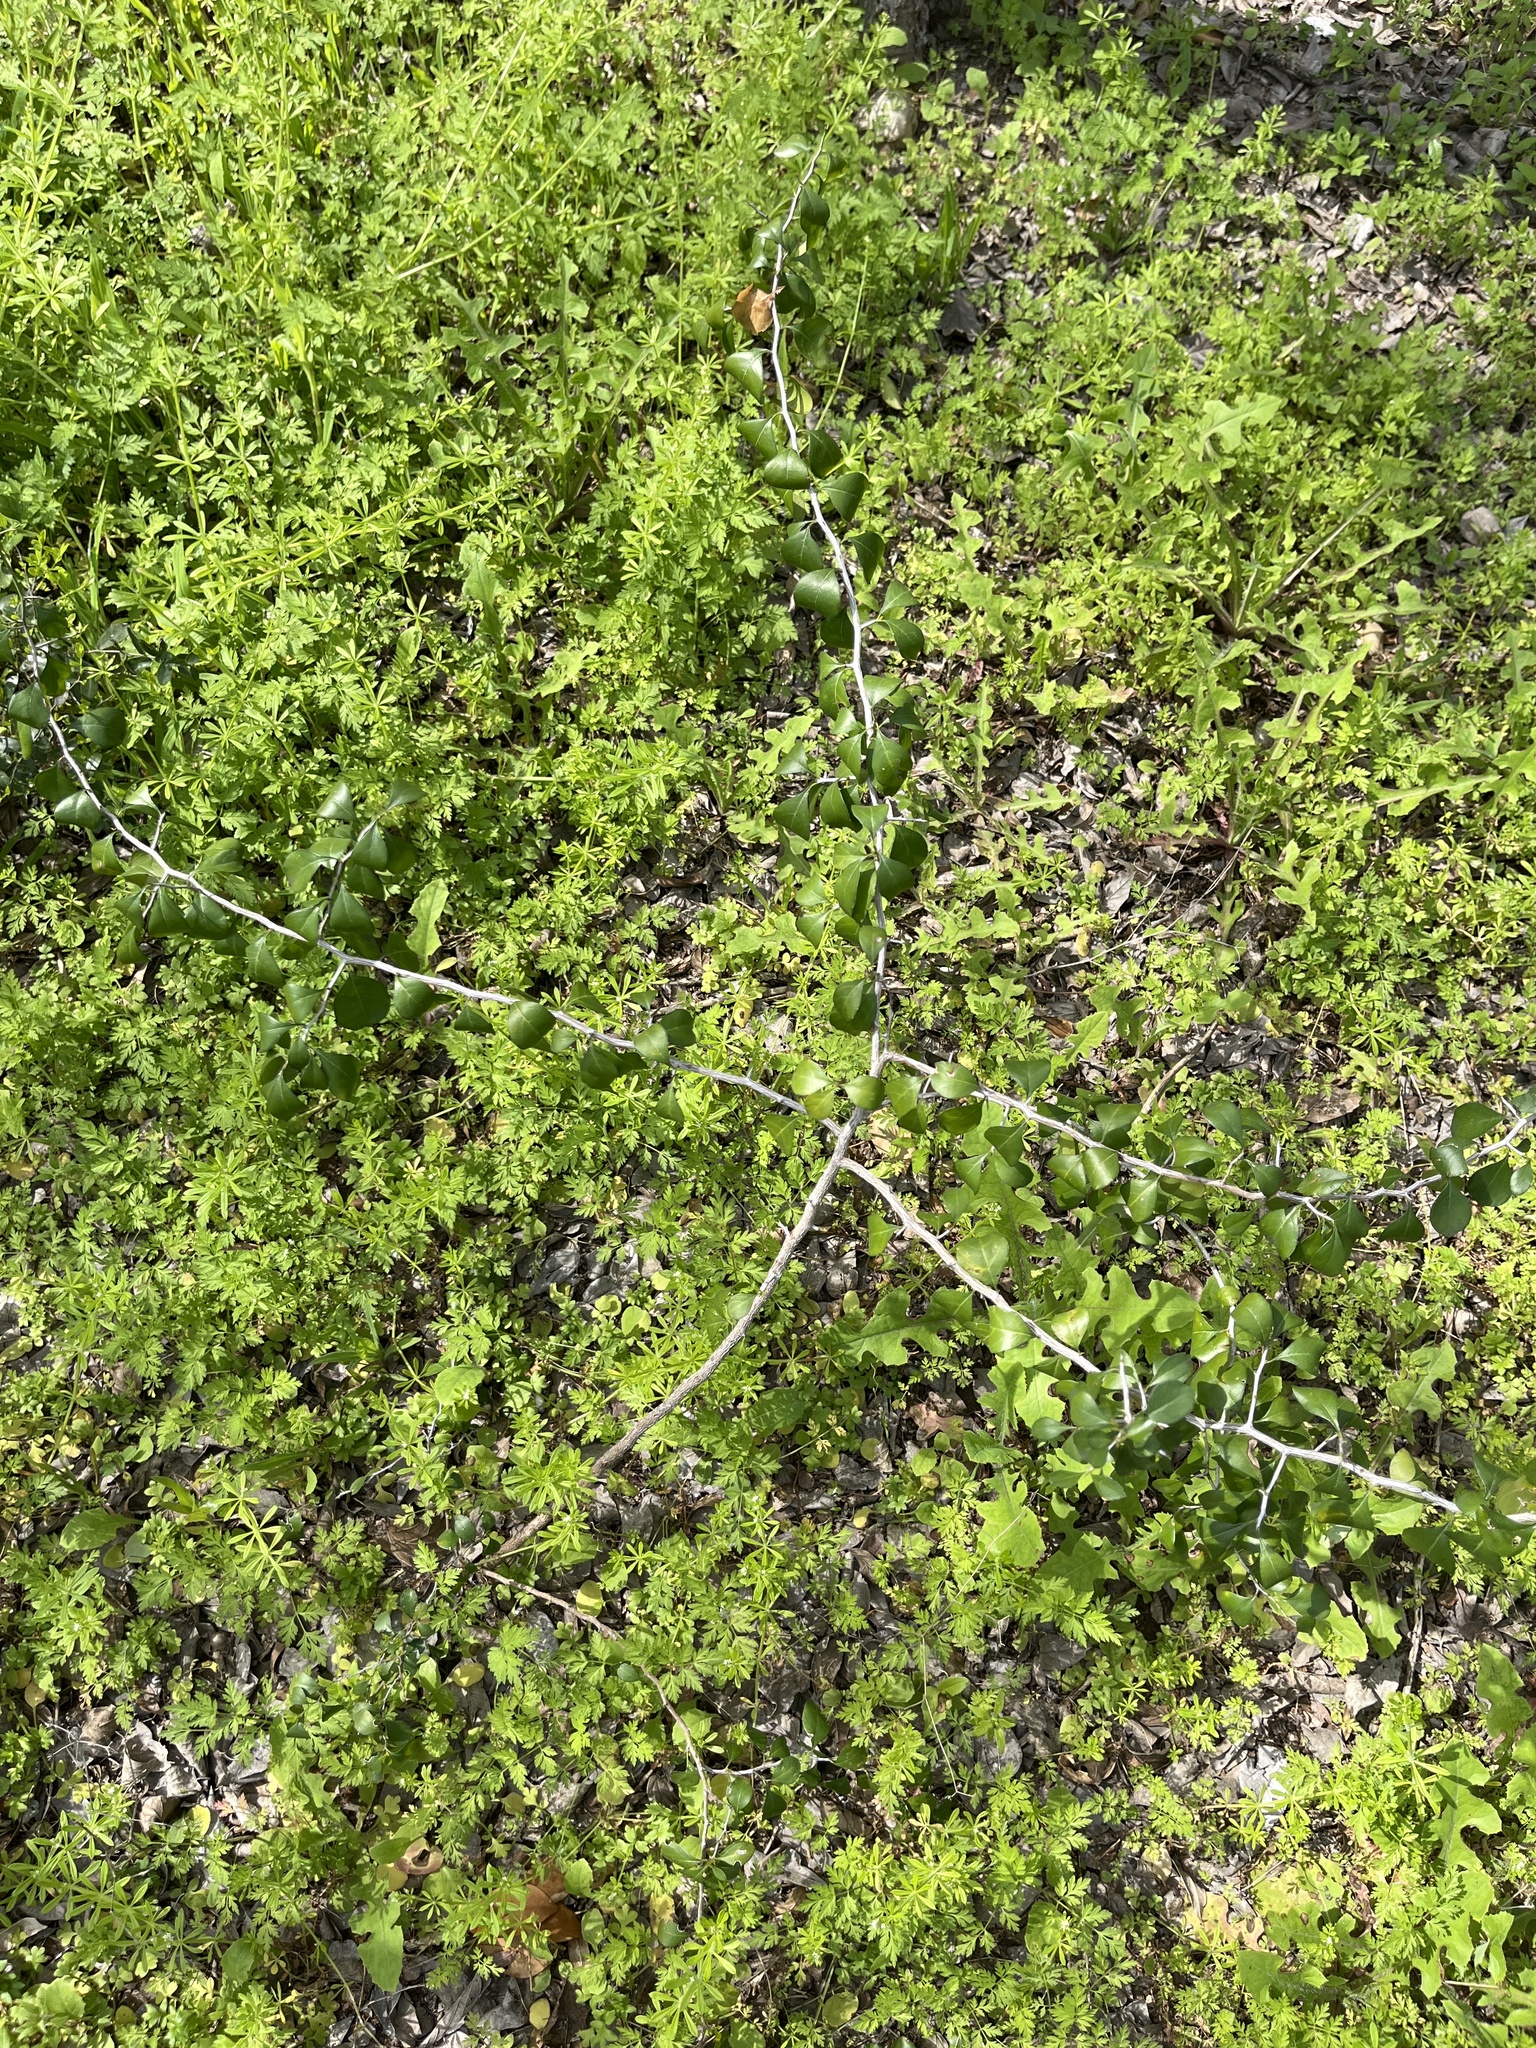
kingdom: Plantae
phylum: Tracheophyta
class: Magnoliopsida
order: Rosales
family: Rhamnaceae
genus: Condalia
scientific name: Condalia hookeri
